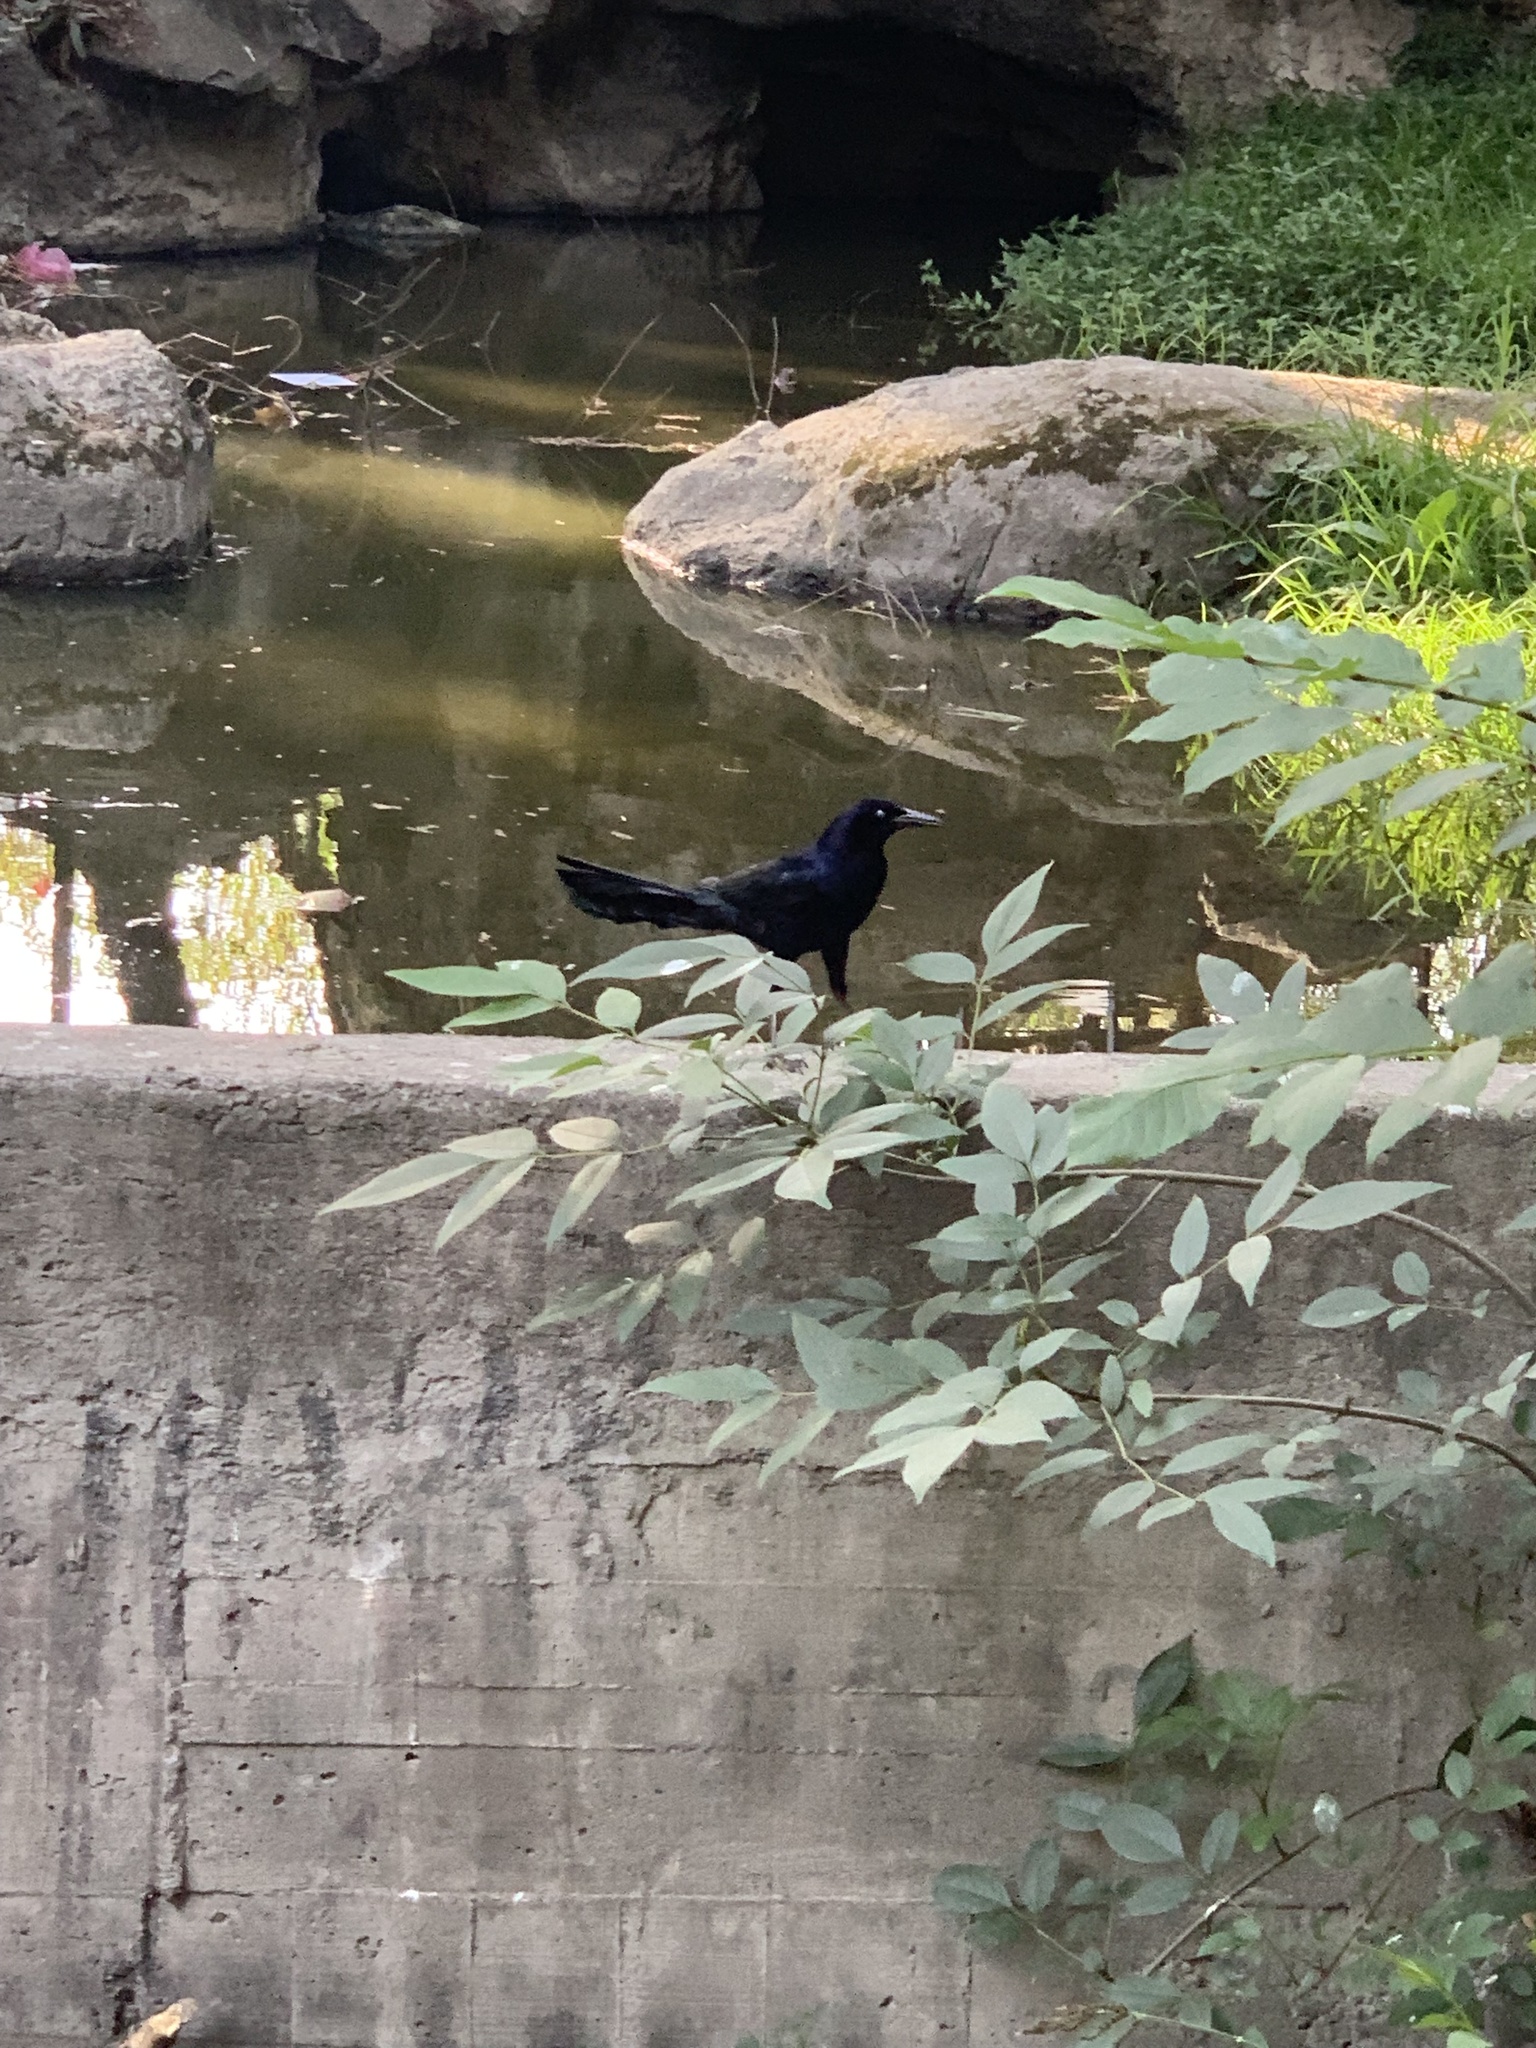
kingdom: Animalia
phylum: Chordata
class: Aves
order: Passeriformes
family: Icteridae
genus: Quiscalus
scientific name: Quiscalus mexicanus
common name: Great-tailed grackle
